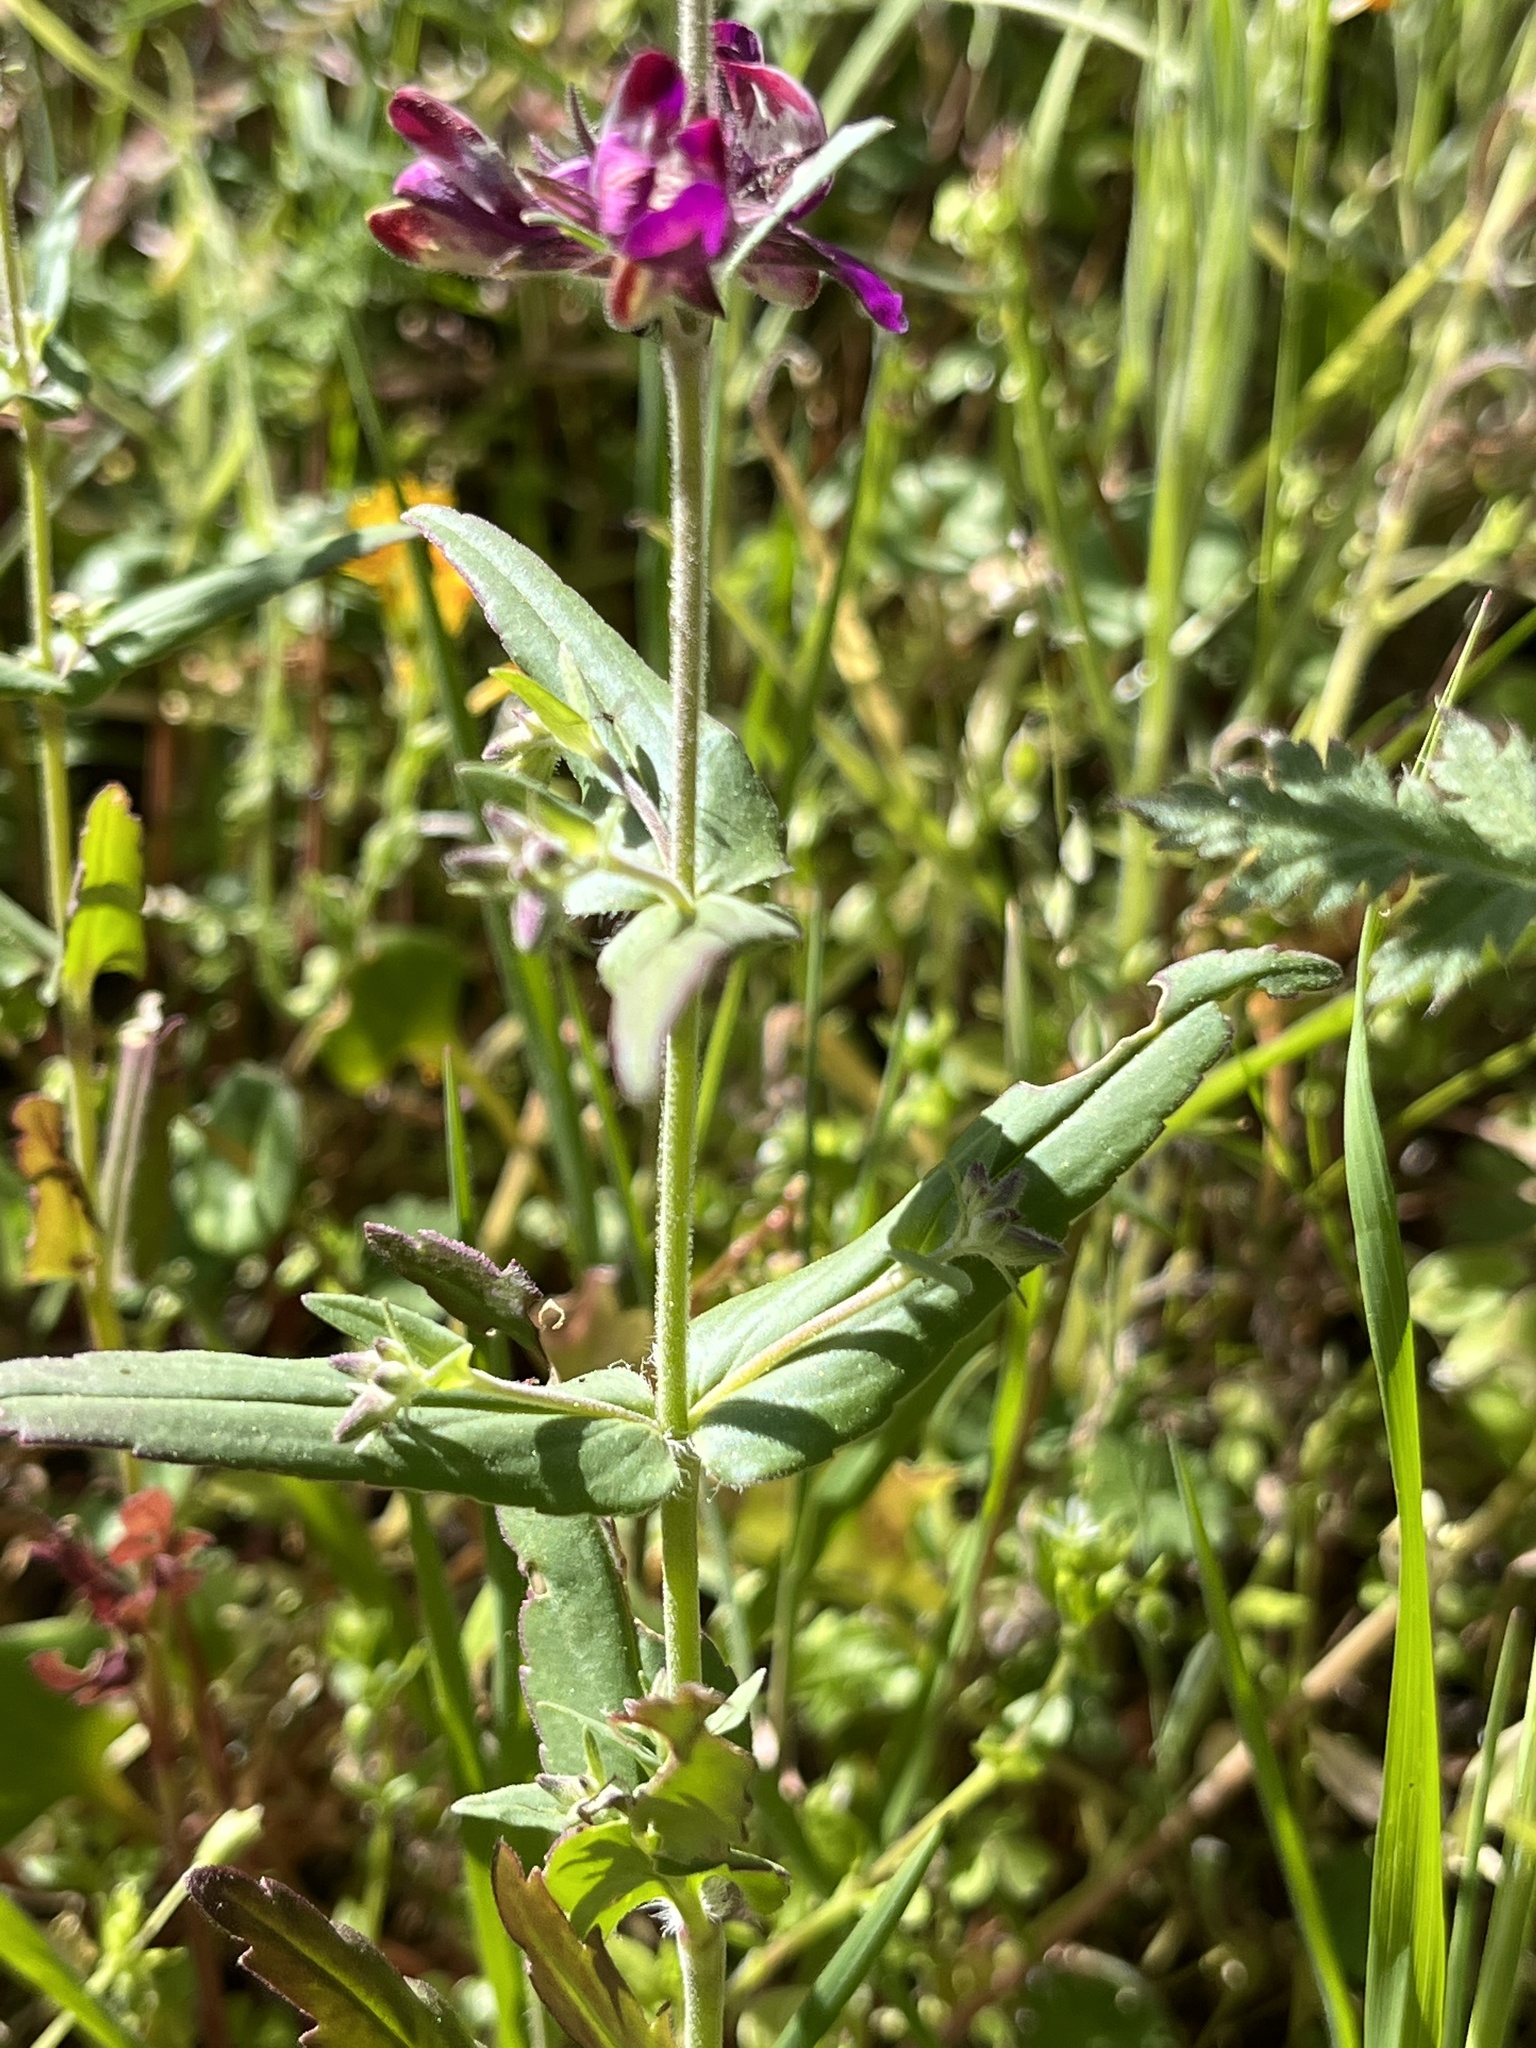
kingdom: Plantae
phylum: Tracheophyta
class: Magnoliopsida
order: Lamiales
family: Plantaginaceae
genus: Collinsia
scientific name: Collinsia heterophylla
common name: Chinese-houses
